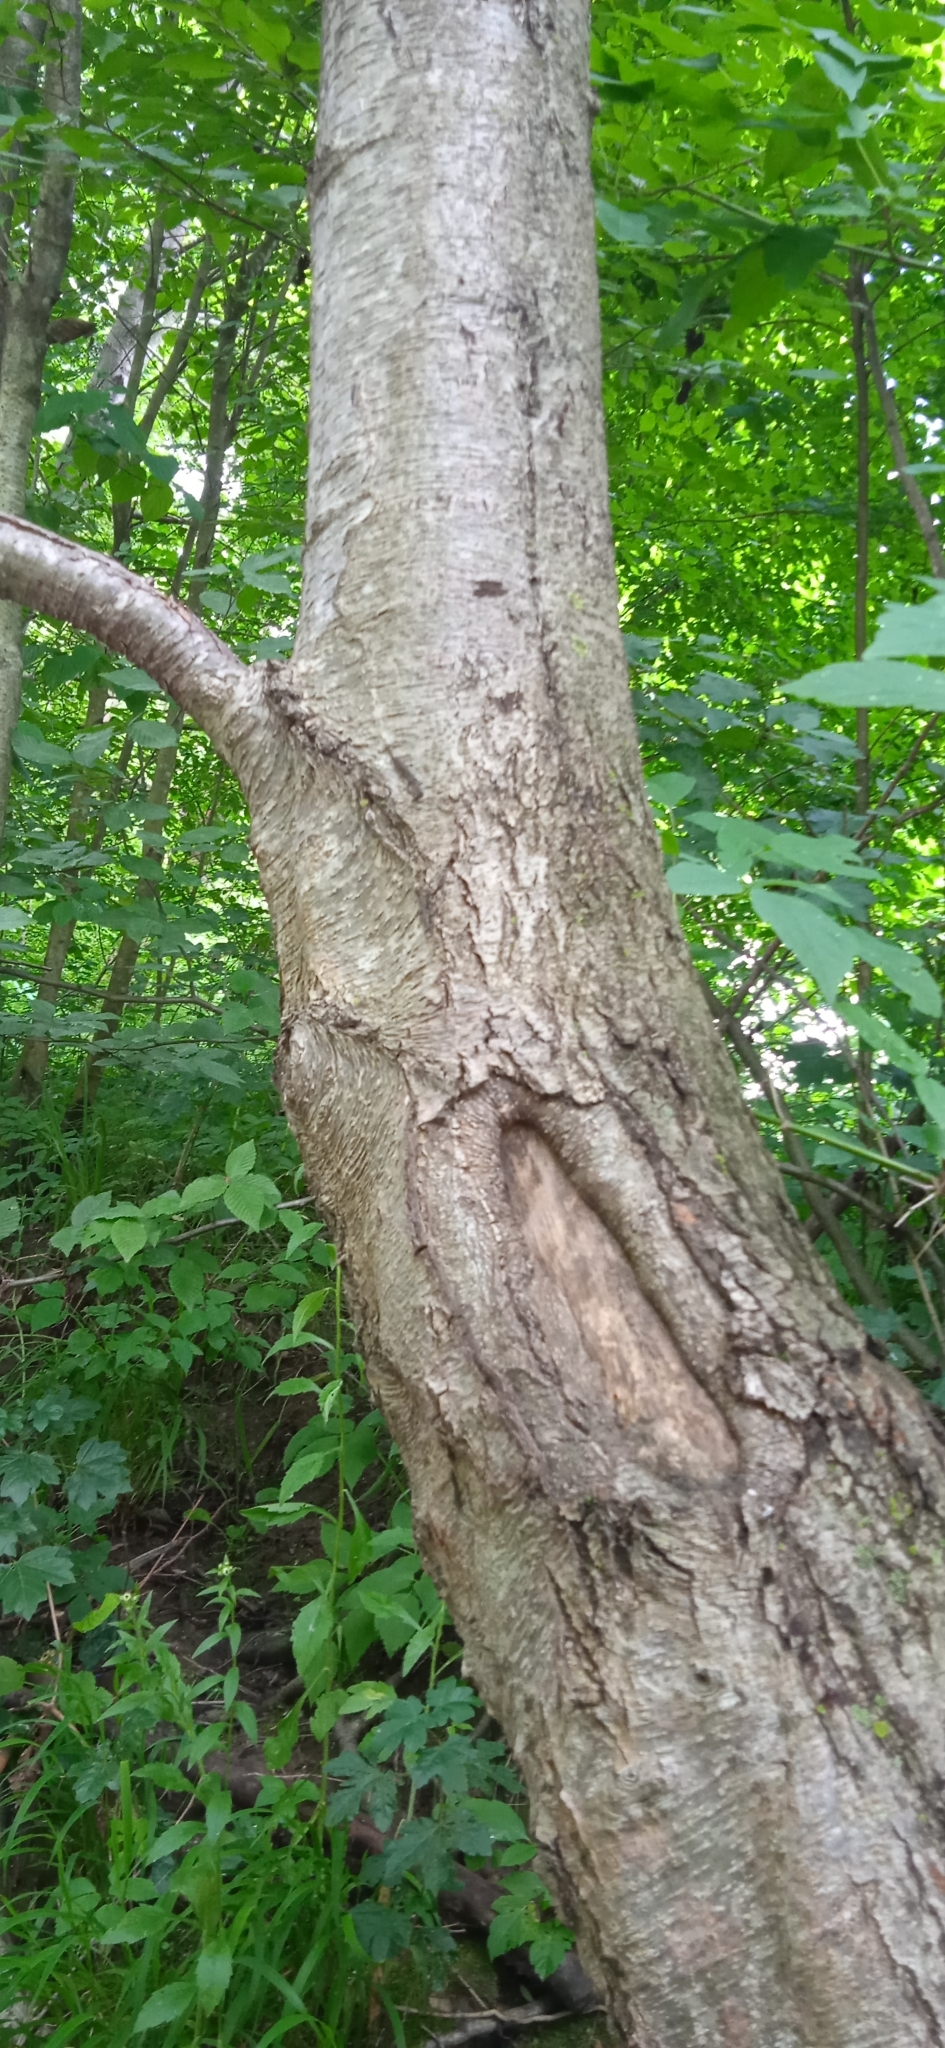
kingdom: Plantae
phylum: Tracheophyta
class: Magnoliopsida
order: Fagales
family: Betulaceae
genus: Alnus
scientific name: Alnus glutinosa
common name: Black alder
